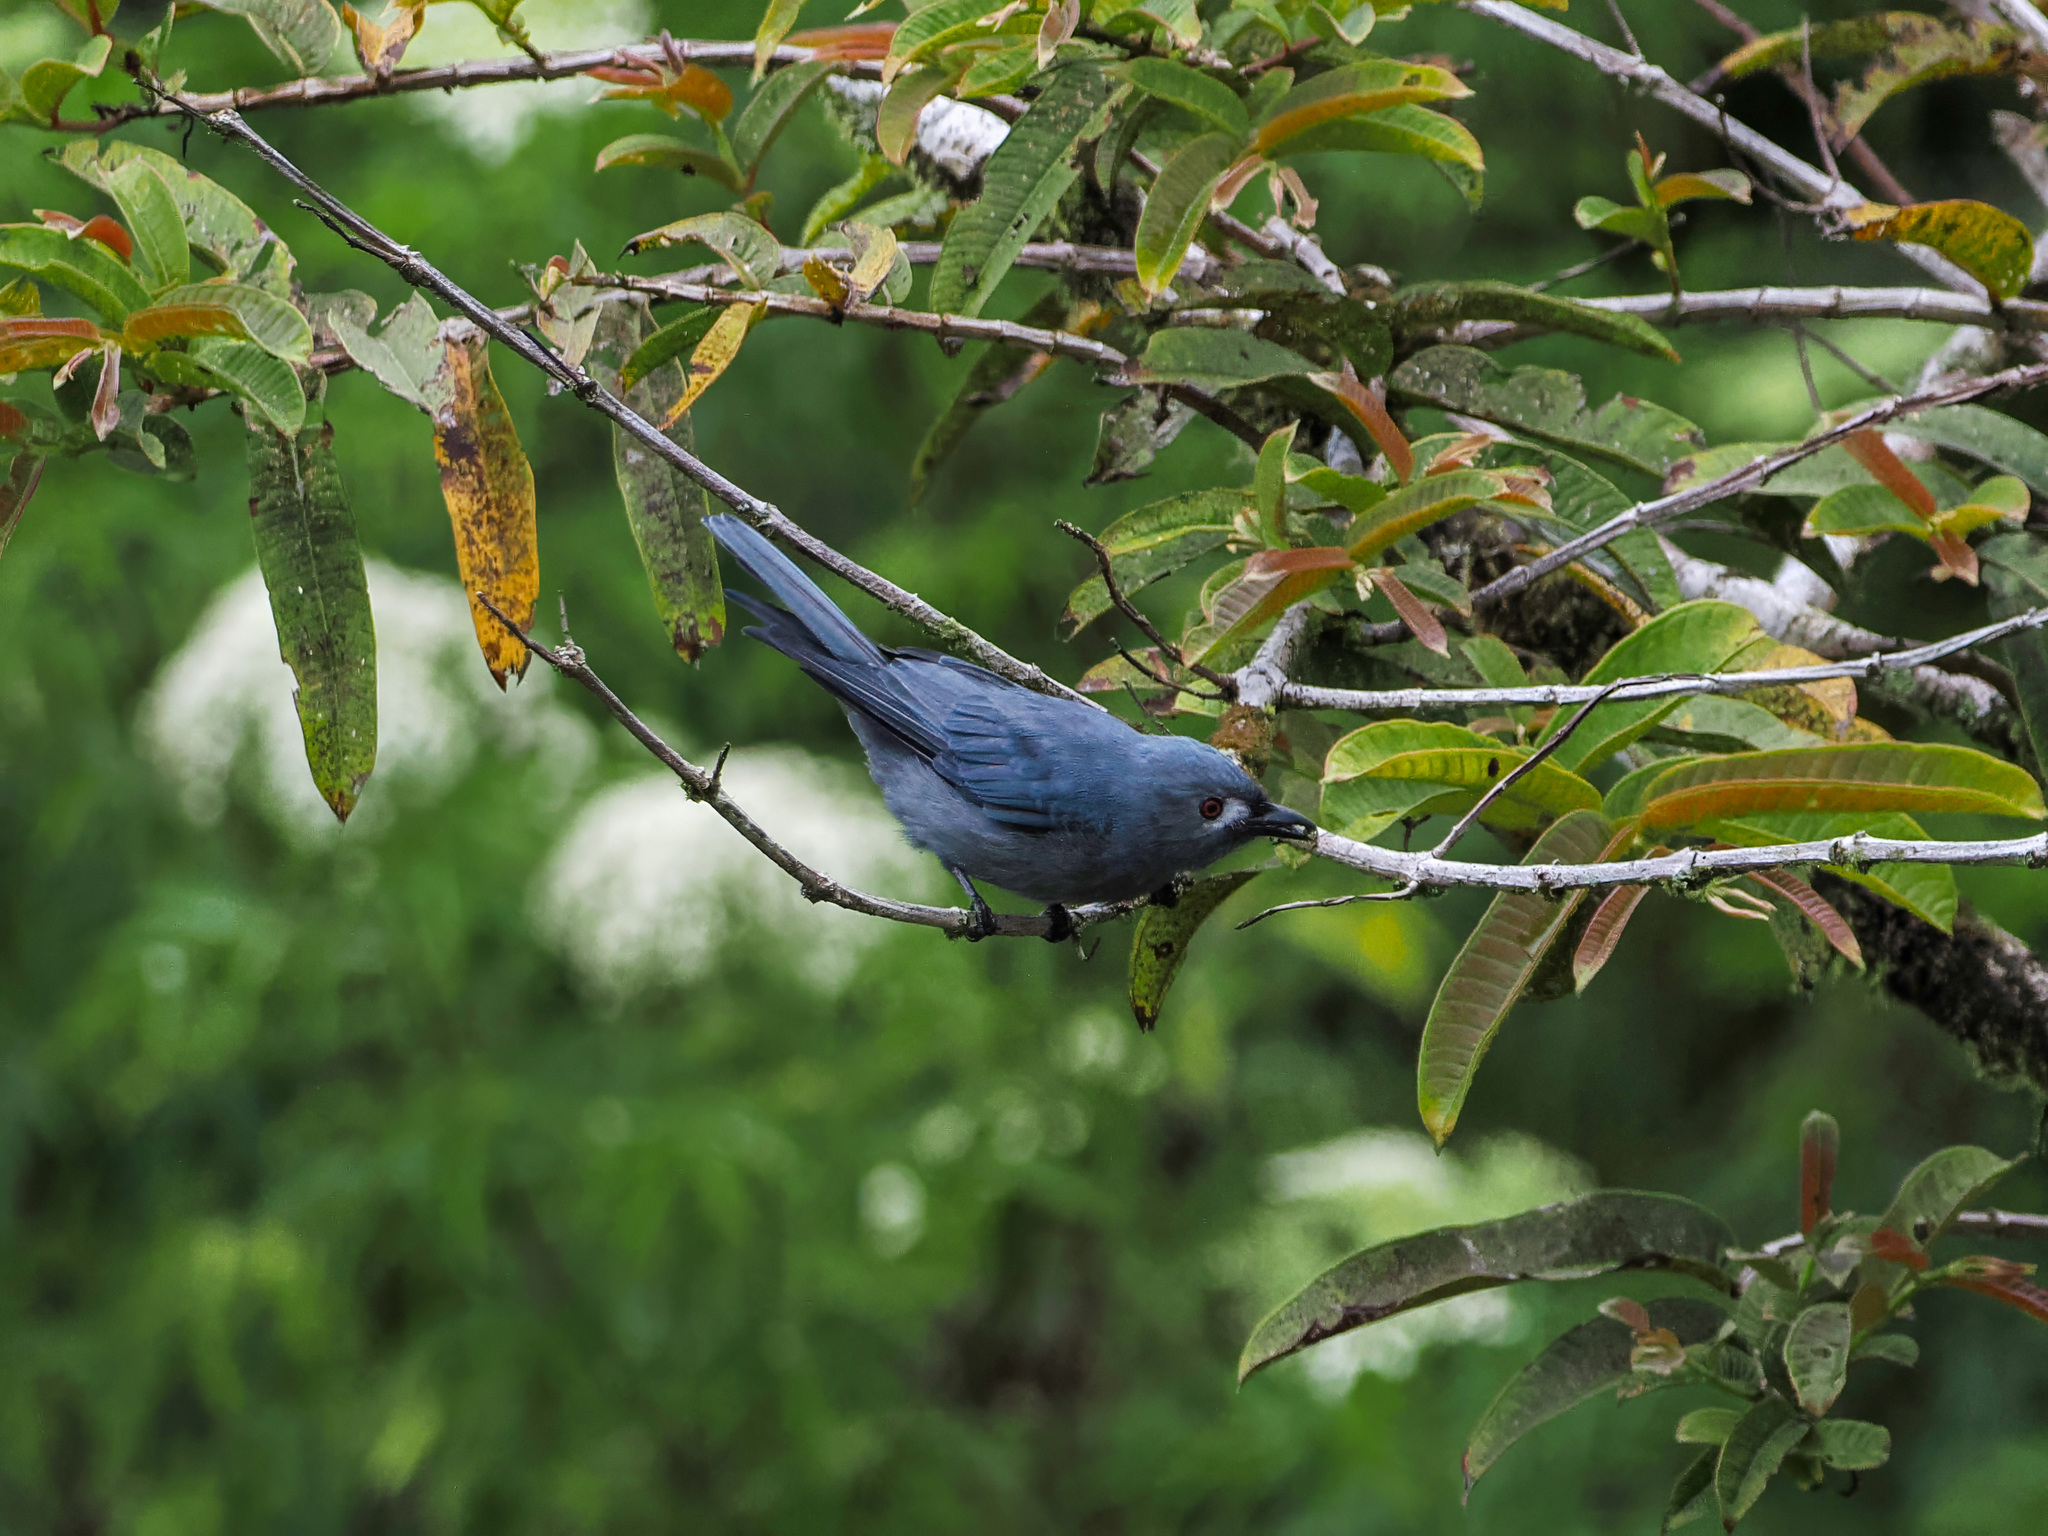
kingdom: Animalia
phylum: Chordata
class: Aves
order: Passeriformes
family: Dicruridae
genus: Dicrurus
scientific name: Dicrurus leucophaeus
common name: Ashy drongo
